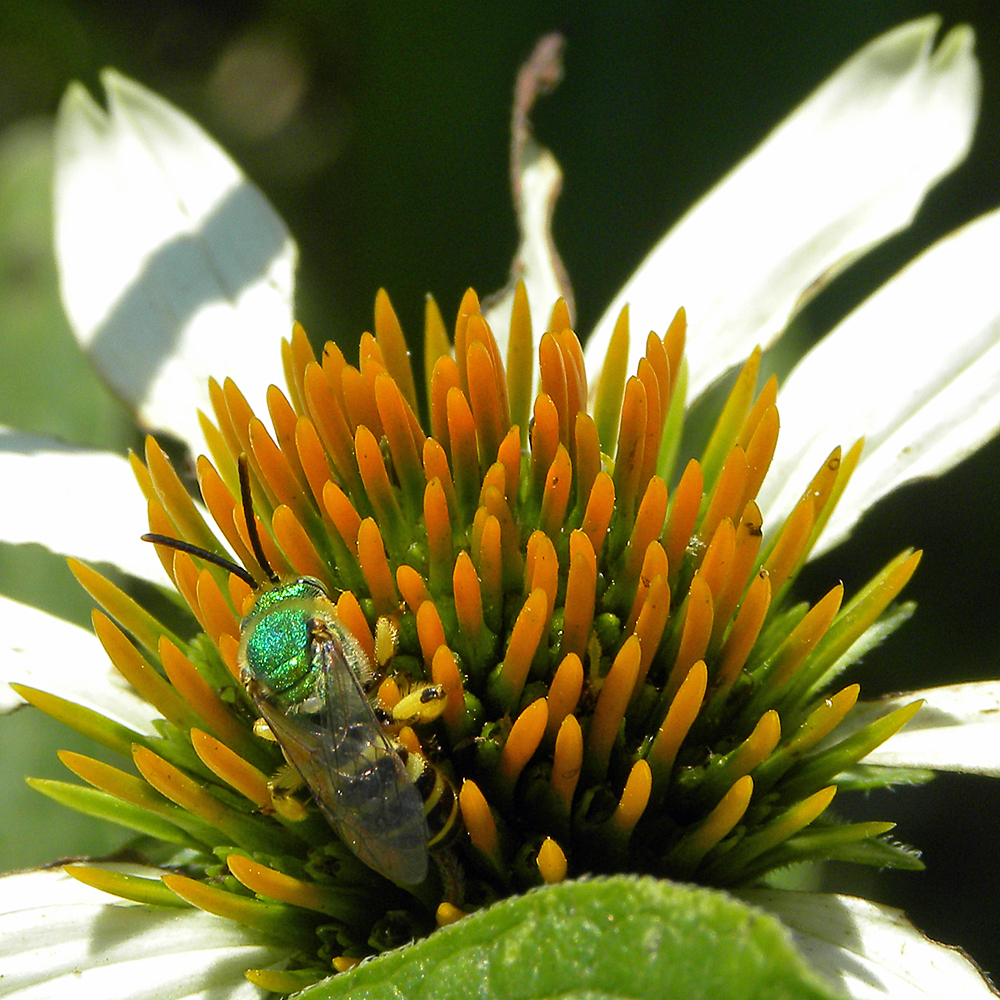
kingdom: Animalia
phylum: Arthropoda
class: Insecta
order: Hymenoptera
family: Halictidae
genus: Agapostemon
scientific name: Agapostemon
